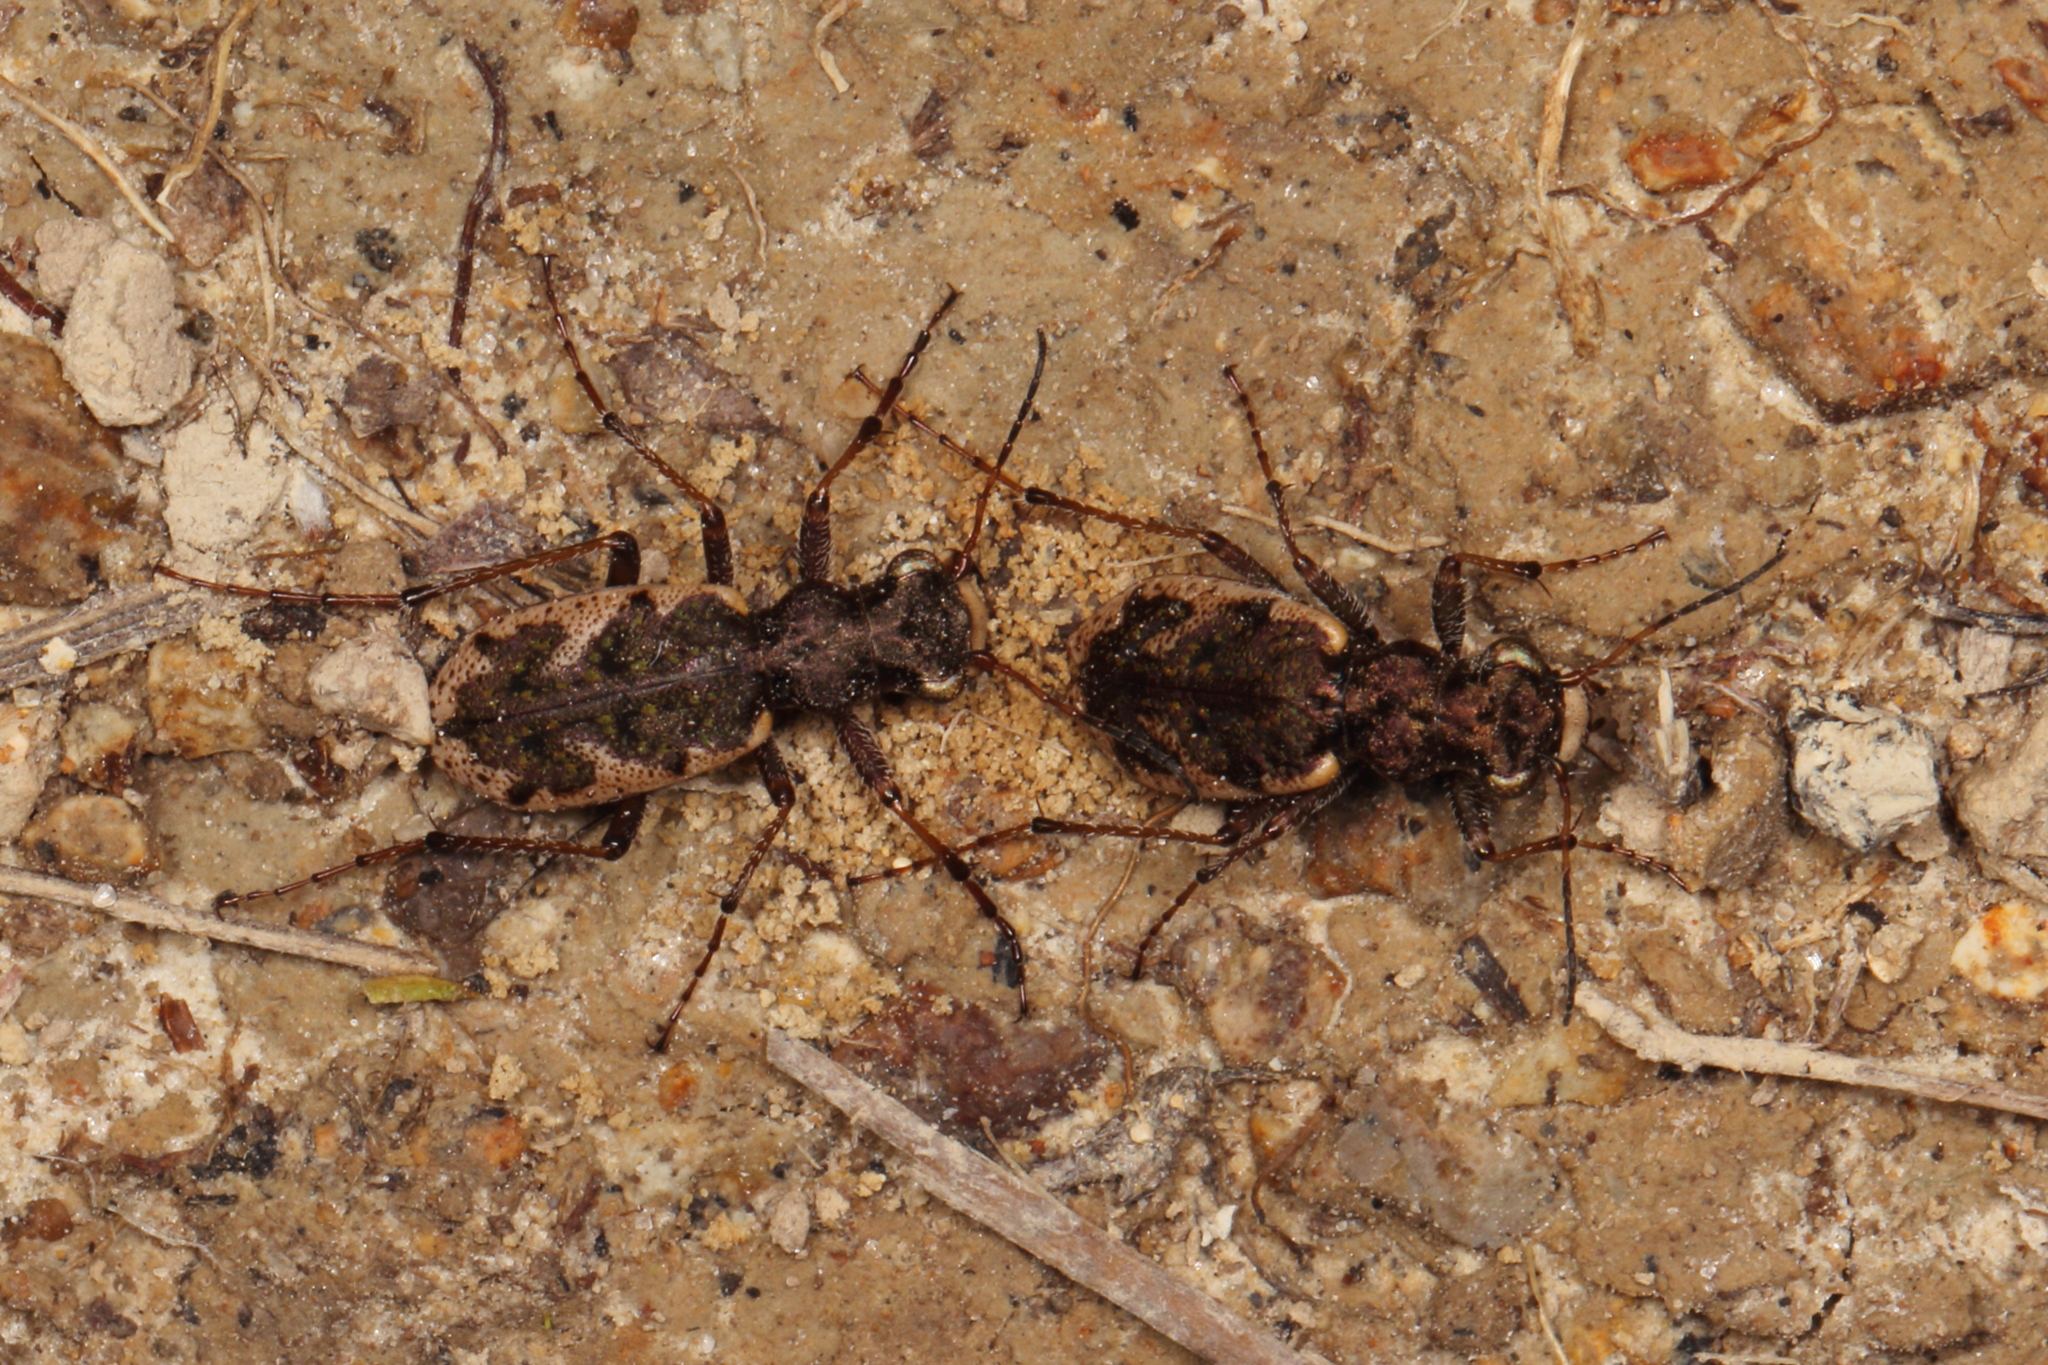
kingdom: Animalia
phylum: Arthropoda
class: Insecta
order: Coleoptera
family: Carabidae
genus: Neocicindela
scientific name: Neocicindela garnerae
